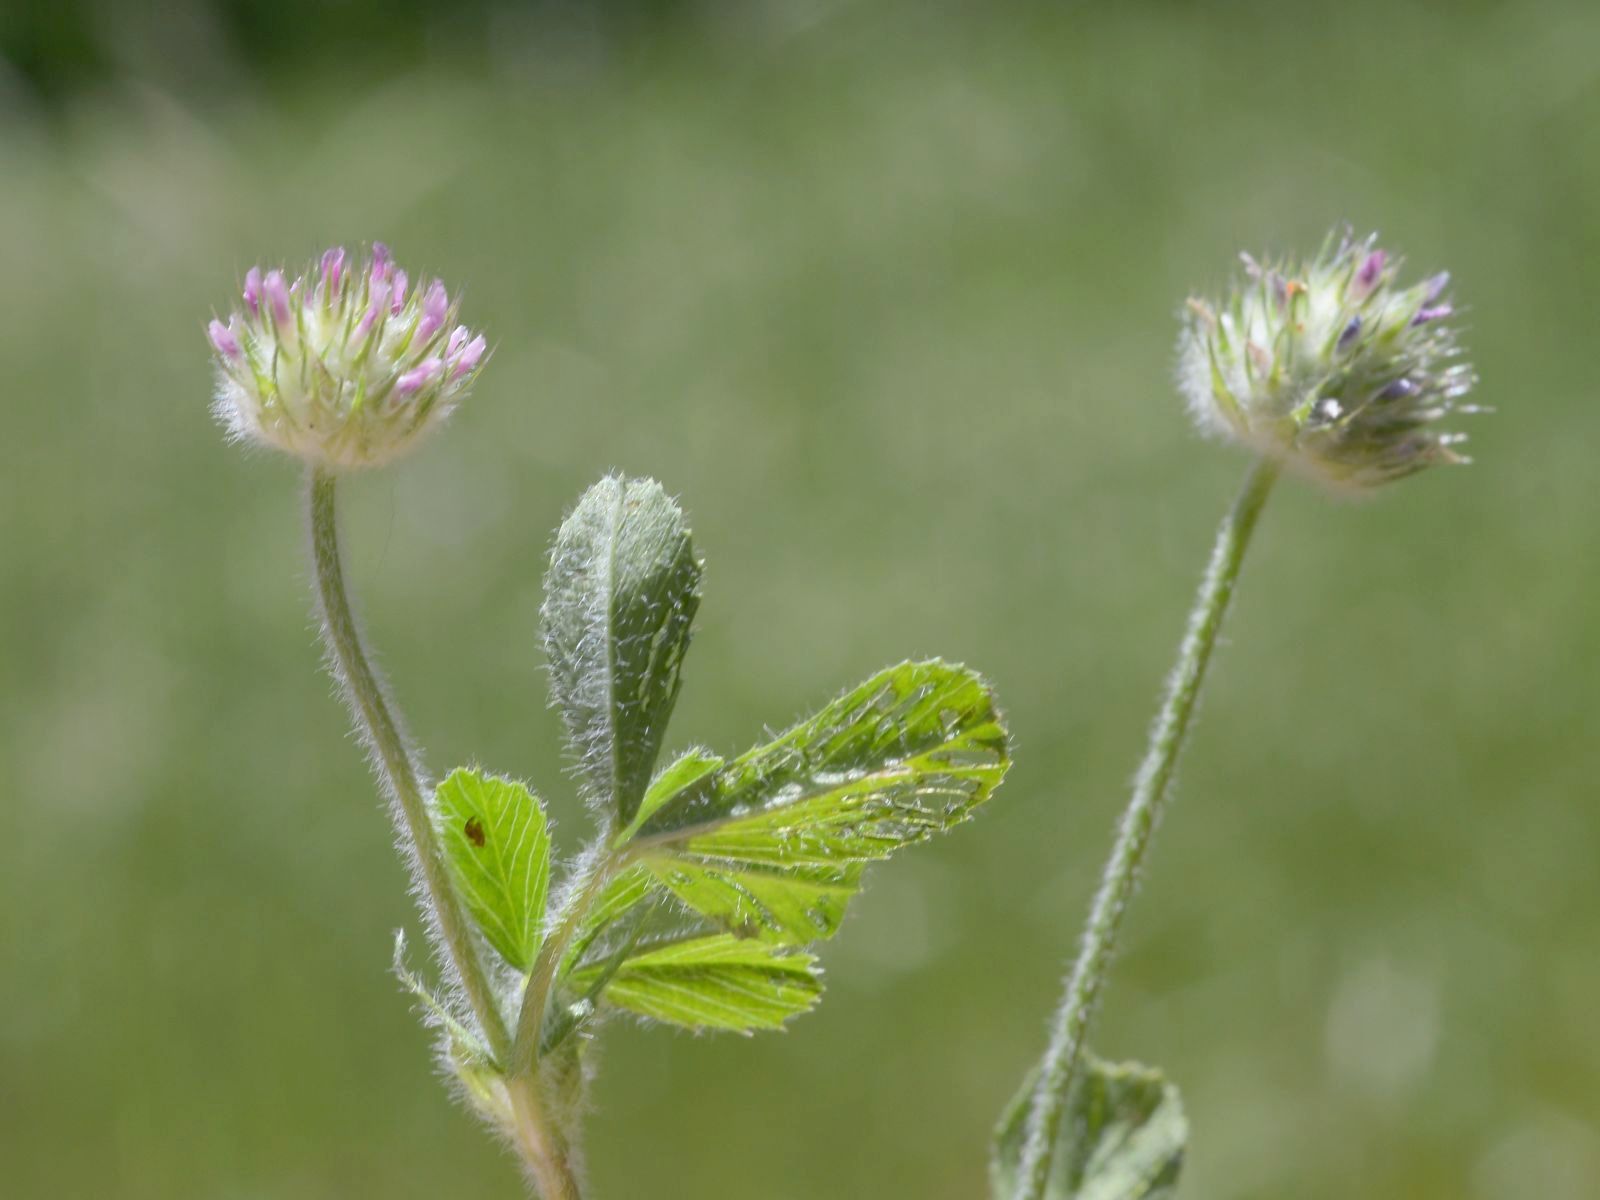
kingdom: Plantae
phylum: Tracheophyta
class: Magnoliopsida
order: Fabales
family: Fabaceae
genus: Trifolium
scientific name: Trifolium microcephalum
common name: Maiden clover
